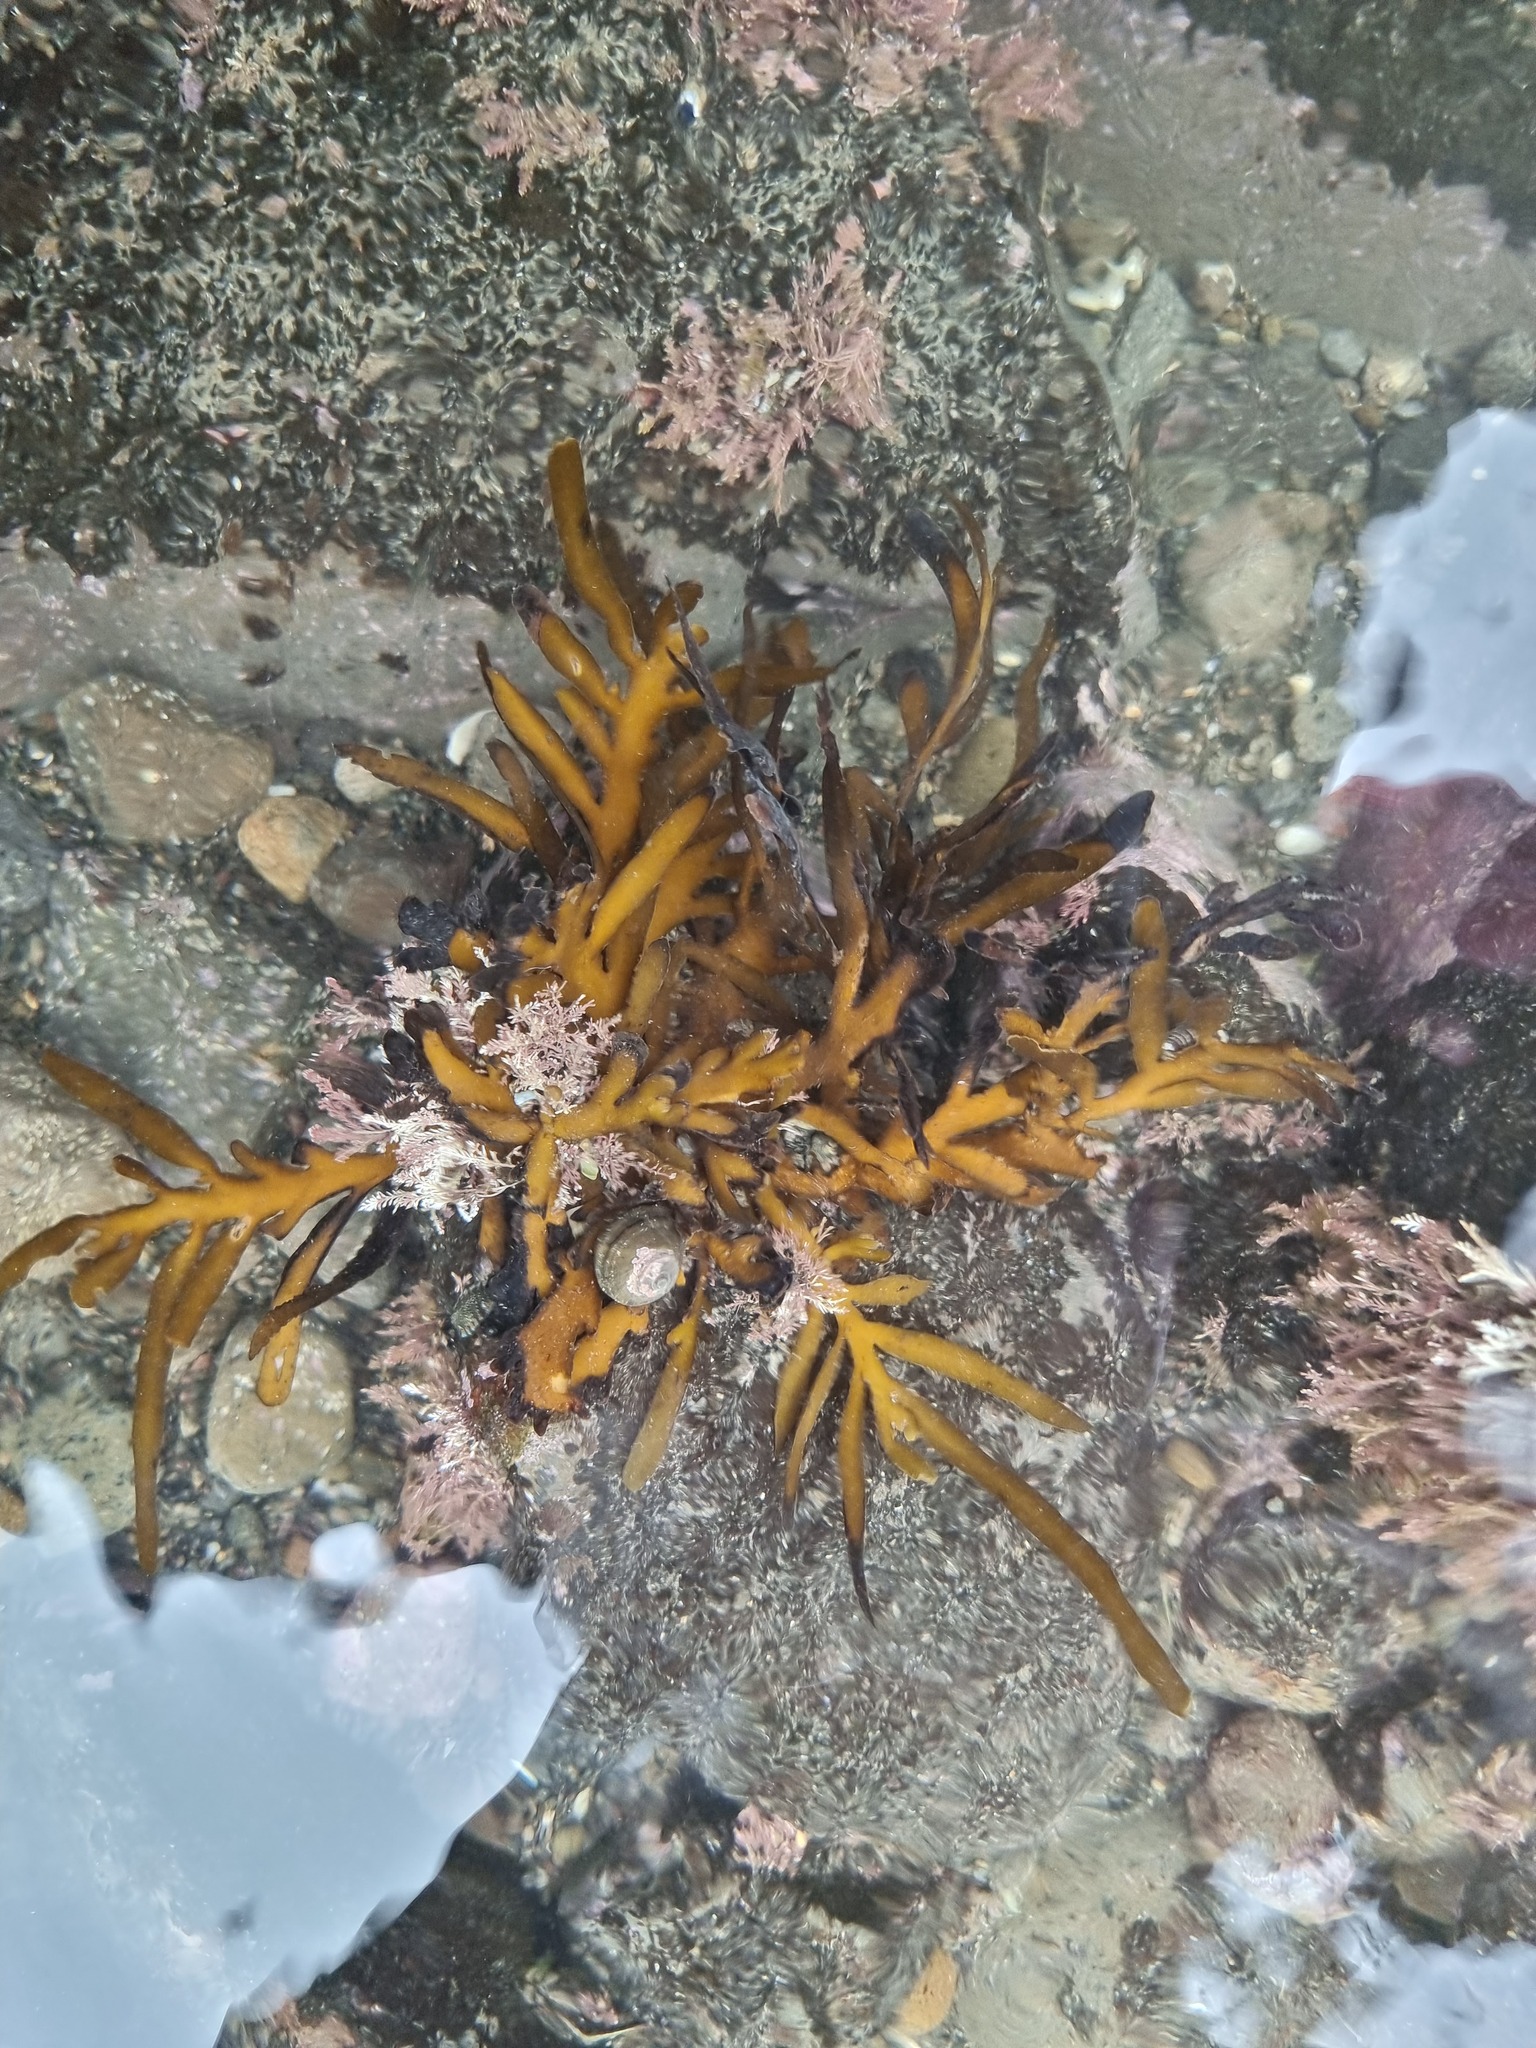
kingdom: Chromista
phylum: Ochrophyta
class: Phaeophyceae
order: Fucales
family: Sargassaceae
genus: Carpophyllum
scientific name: Carpophyllum maschalocarpum
